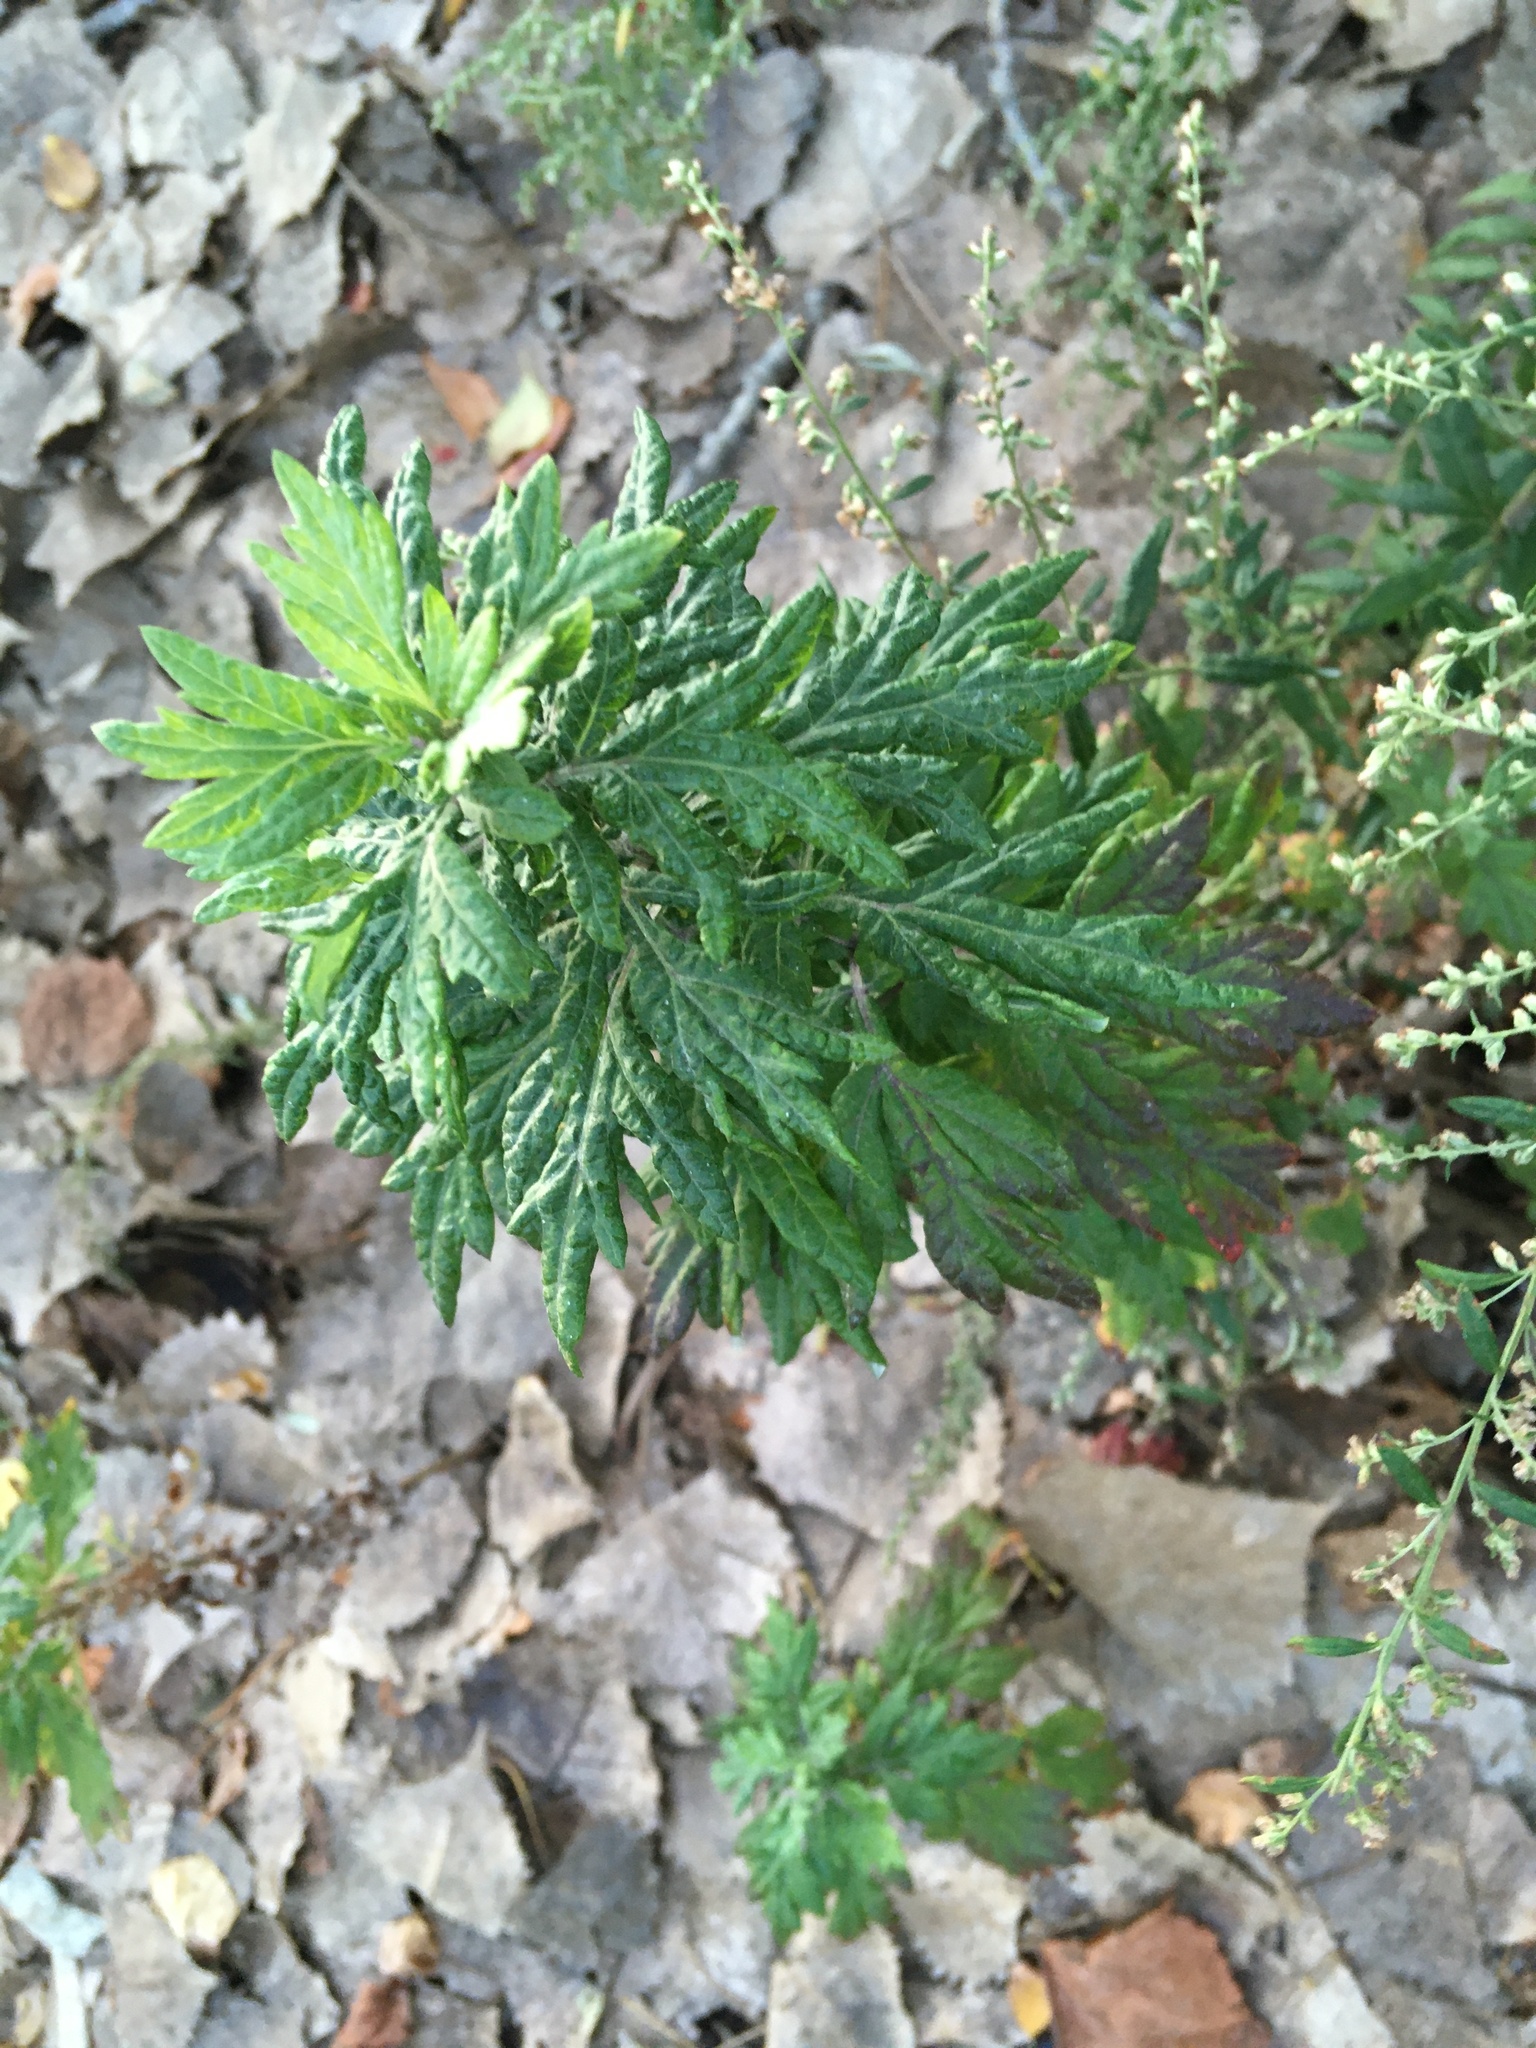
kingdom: Plantae
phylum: Tracheophyta
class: Magnoliopsida
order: Asterales
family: Asteraceae
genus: Artemisia
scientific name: Artemisia vulgaris
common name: Mugwort
